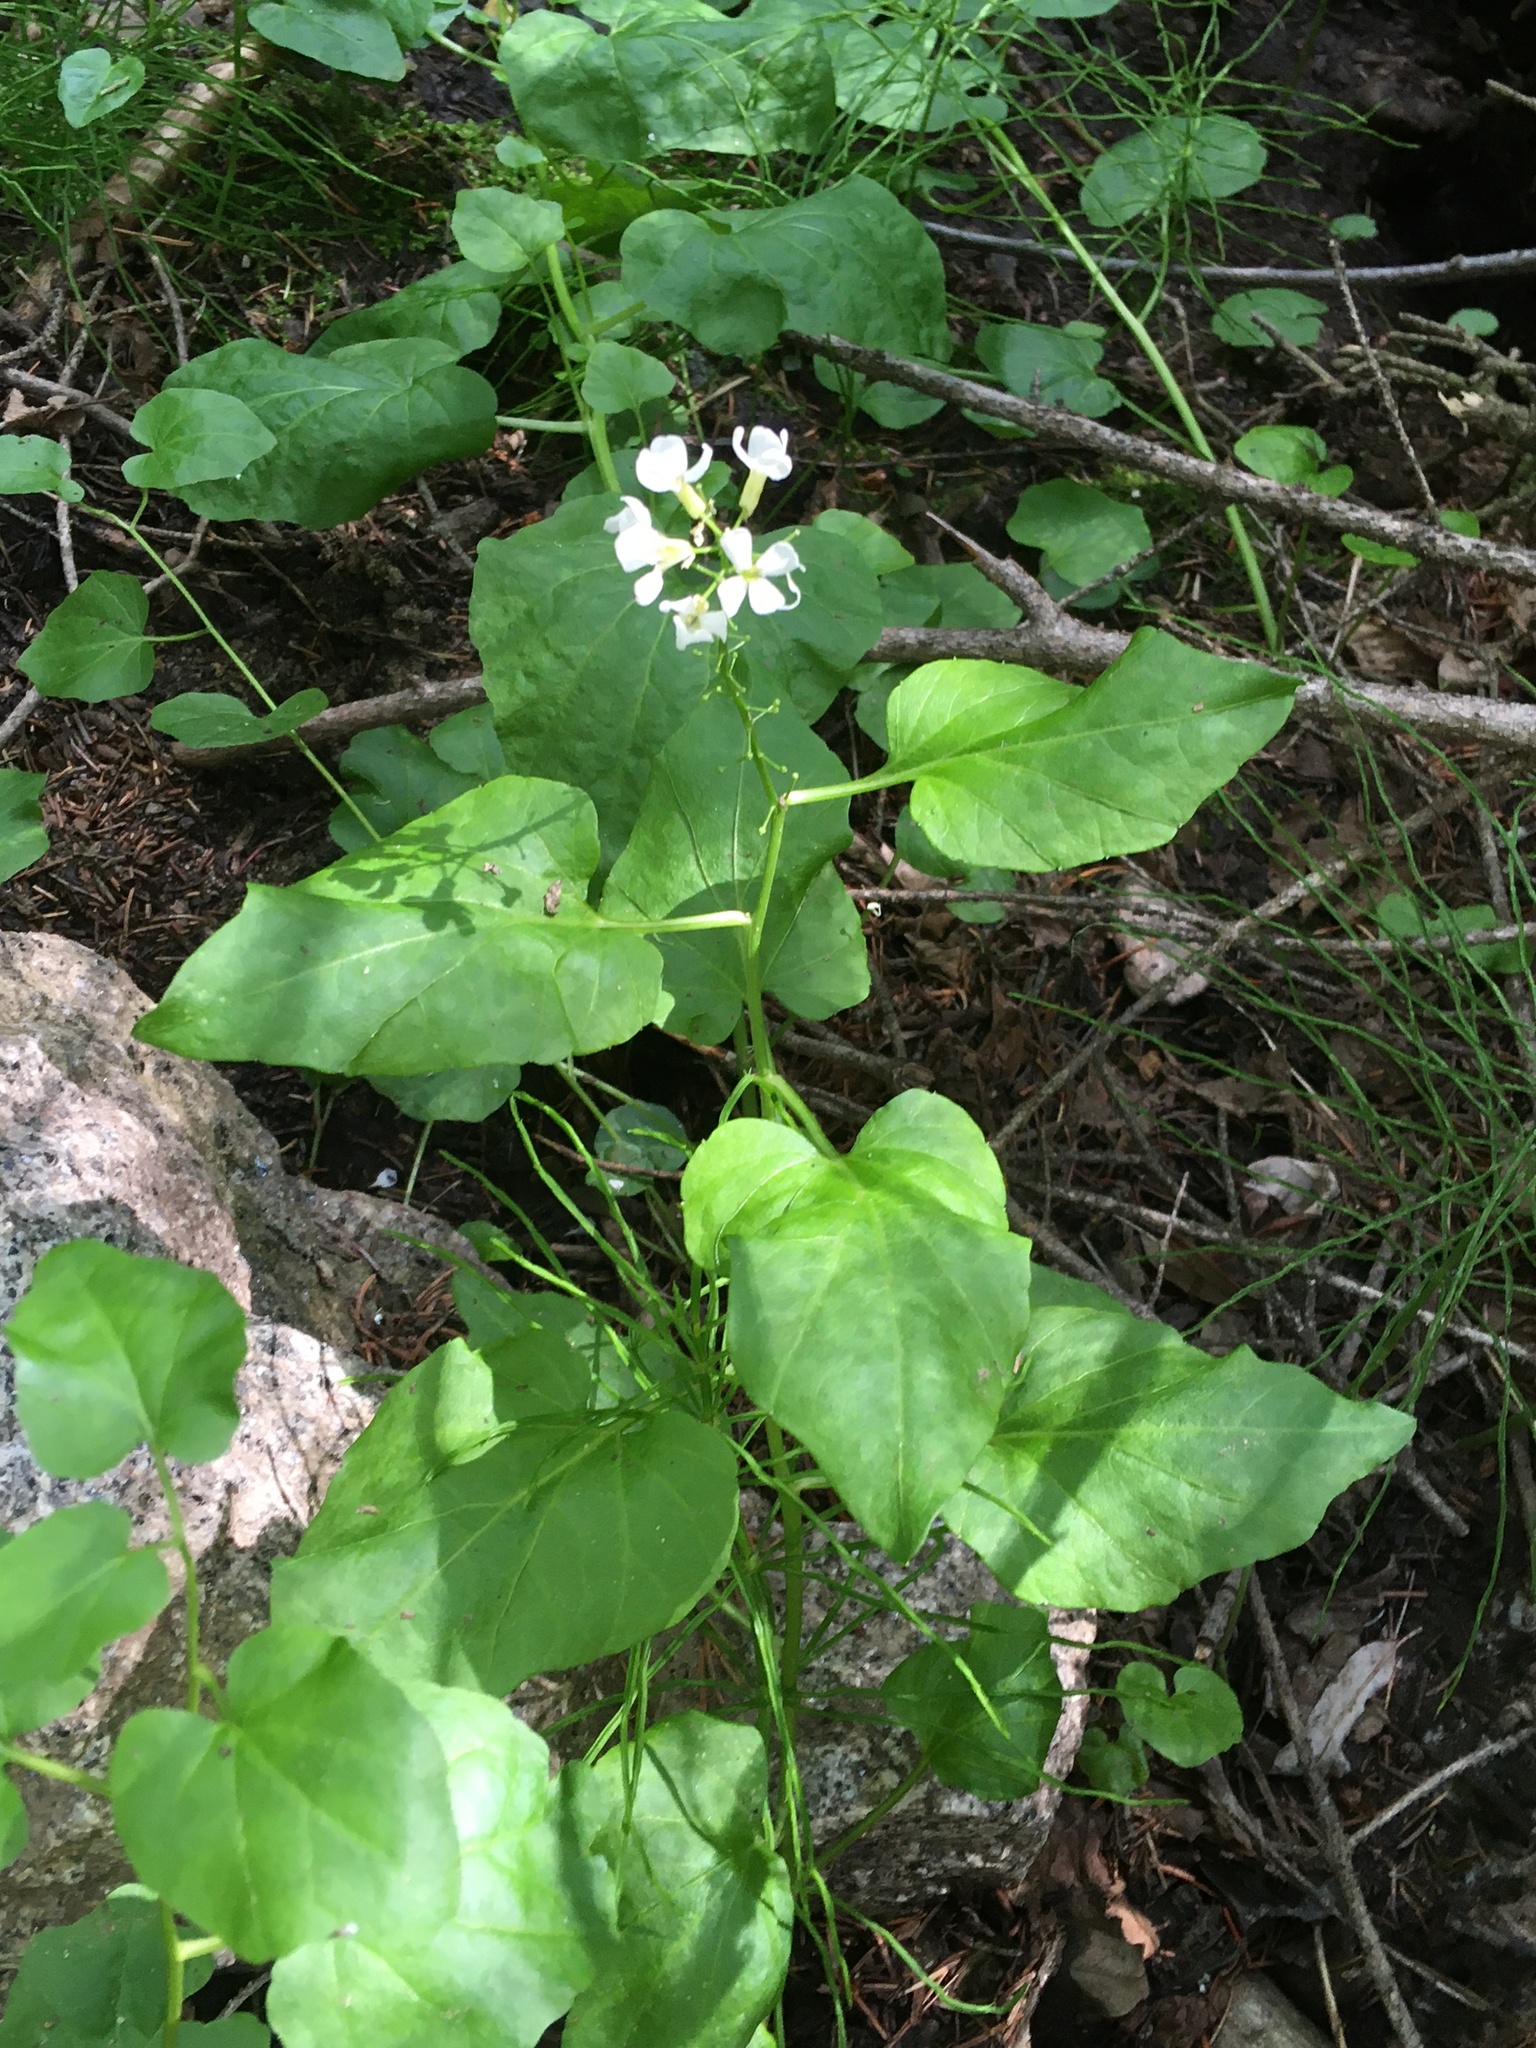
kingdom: Plantae
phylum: Tracheophyta
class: Magnoliopsida
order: Brassicales
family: Brassicaceae
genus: Cardamine
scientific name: Cardamine cordifolia
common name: Heart-leaf bittercress
